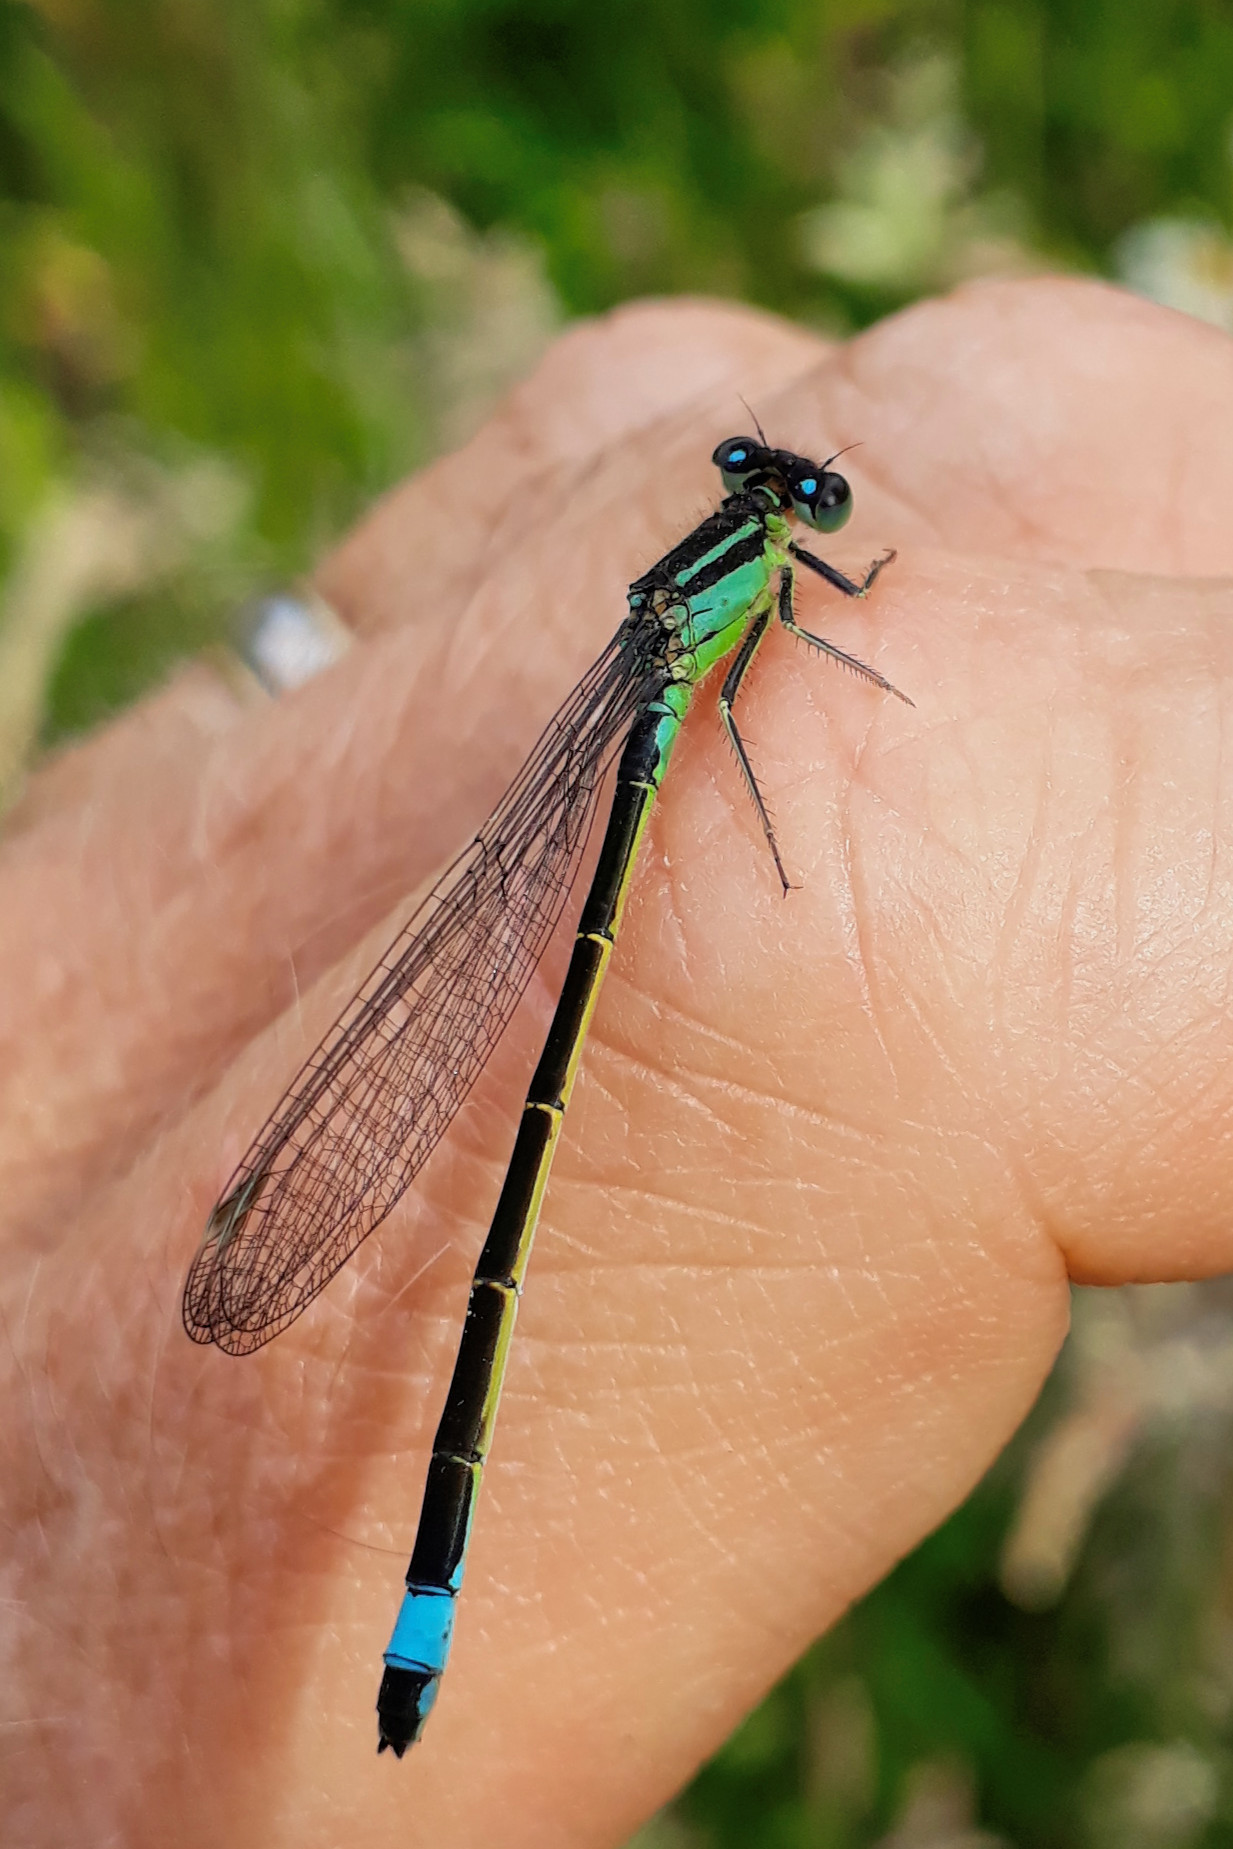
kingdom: Animalia
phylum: Arthropoda
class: Insecta
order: Odonata
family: Coenagrionidae
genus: Ischnura
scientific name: Ischnura elegans
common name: Blue-tailed damselfly
